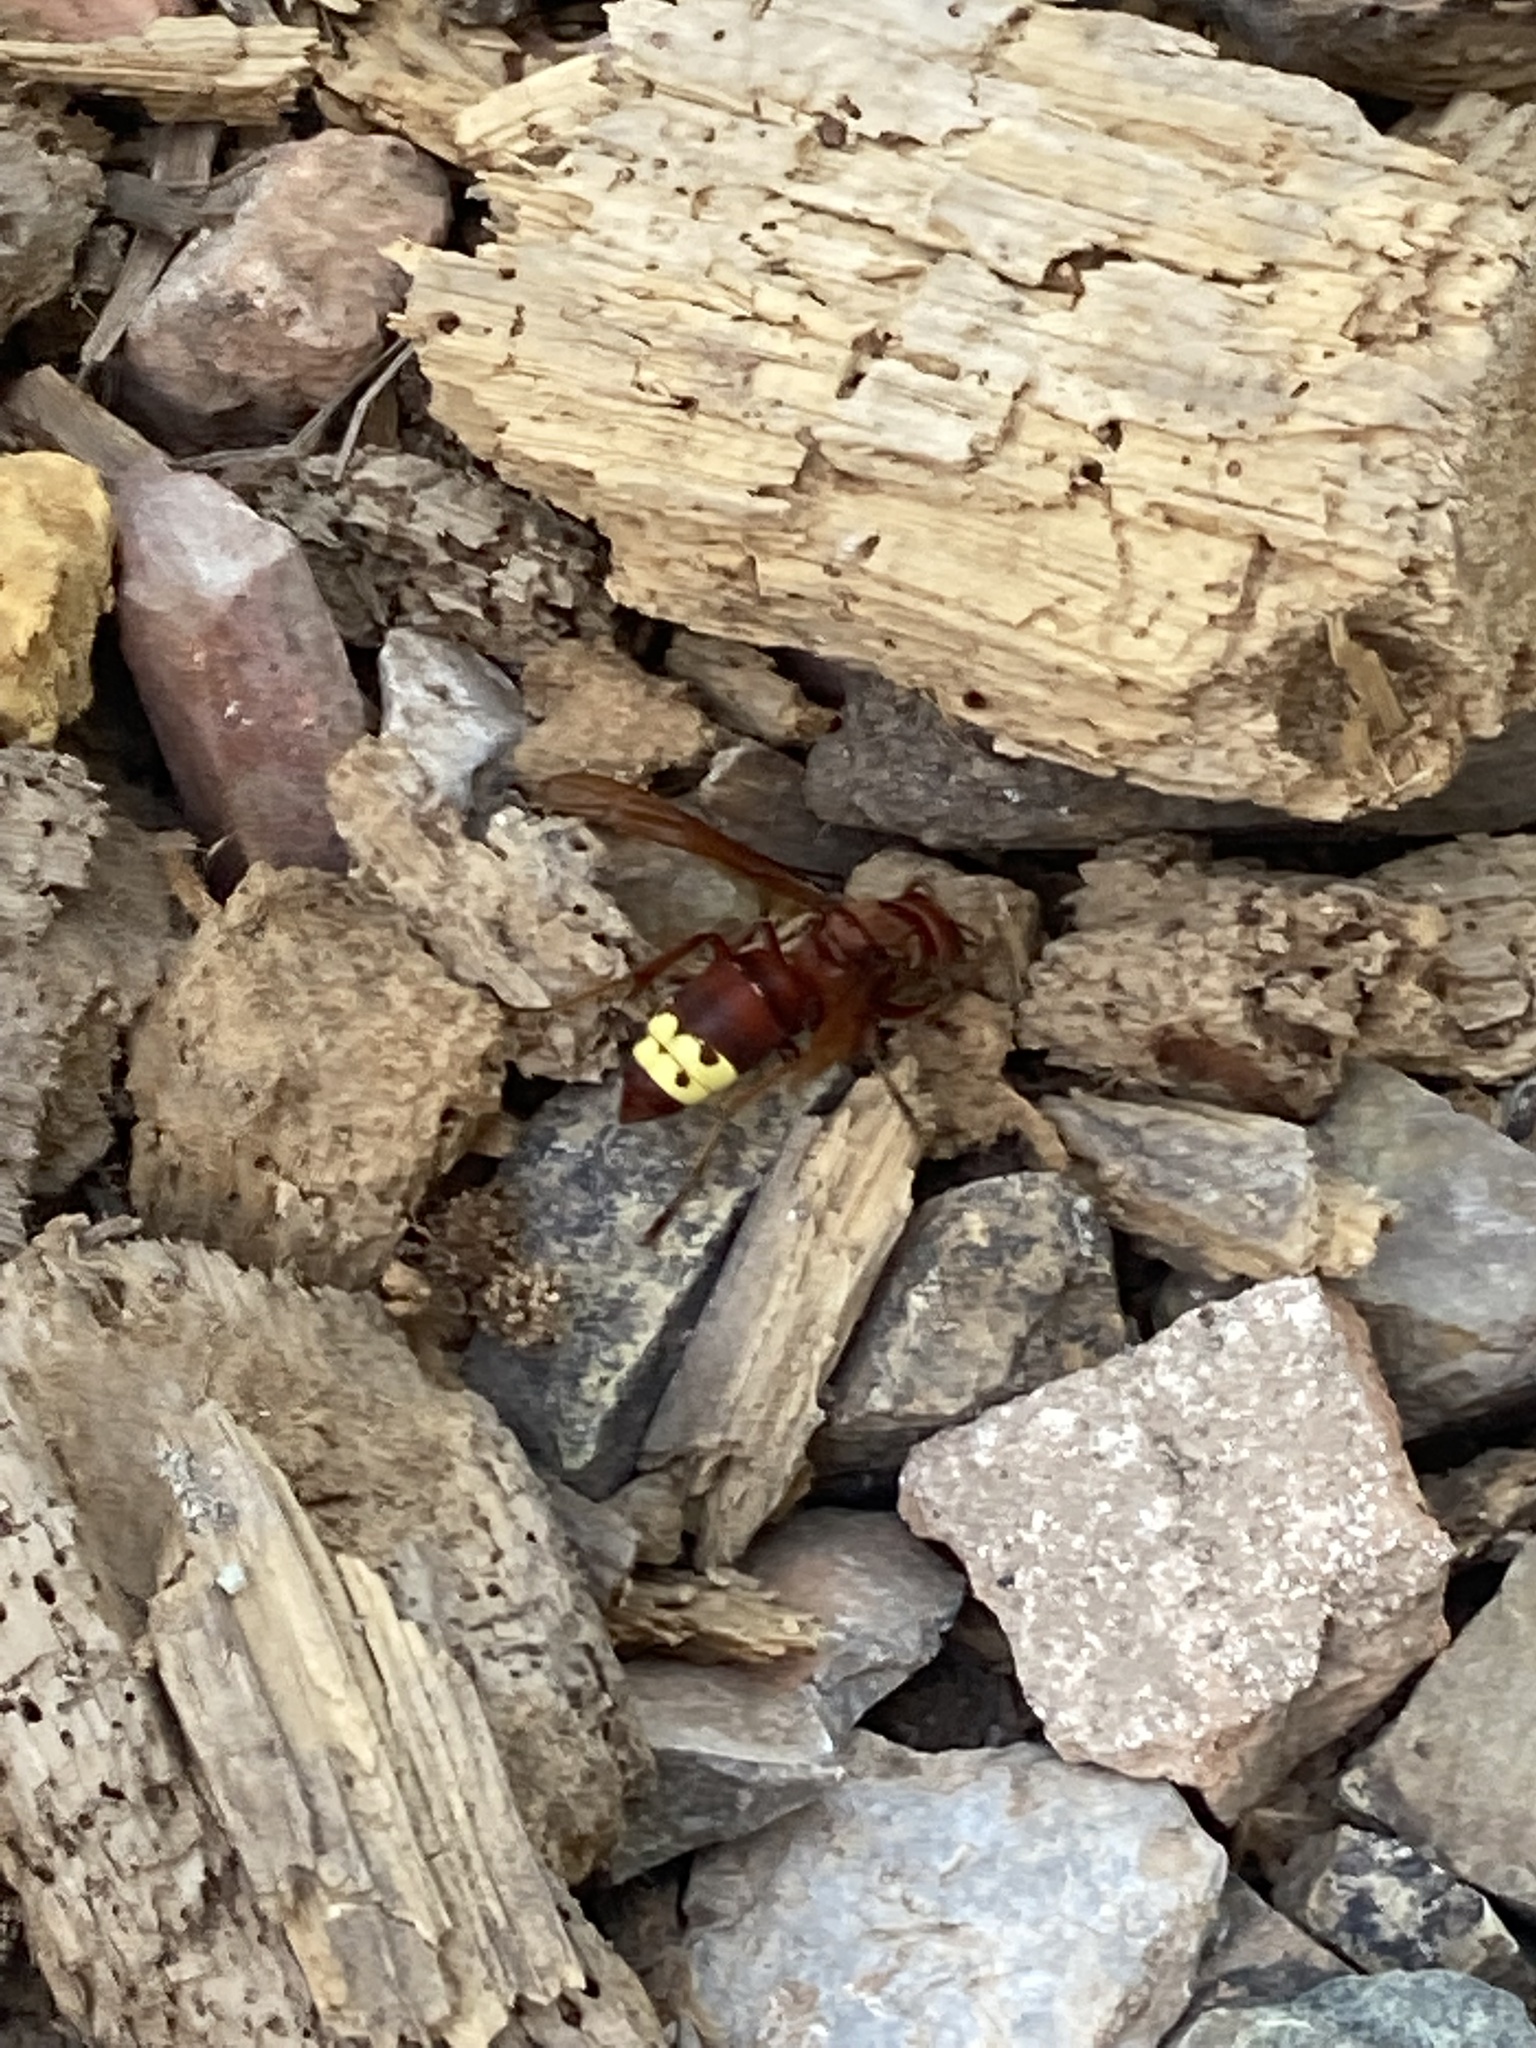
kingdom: Animalia
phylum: Arthropoda
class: Insecta
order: Hymenoptera
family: Vespidae
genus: Vespa
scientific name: Vespa orientalis
